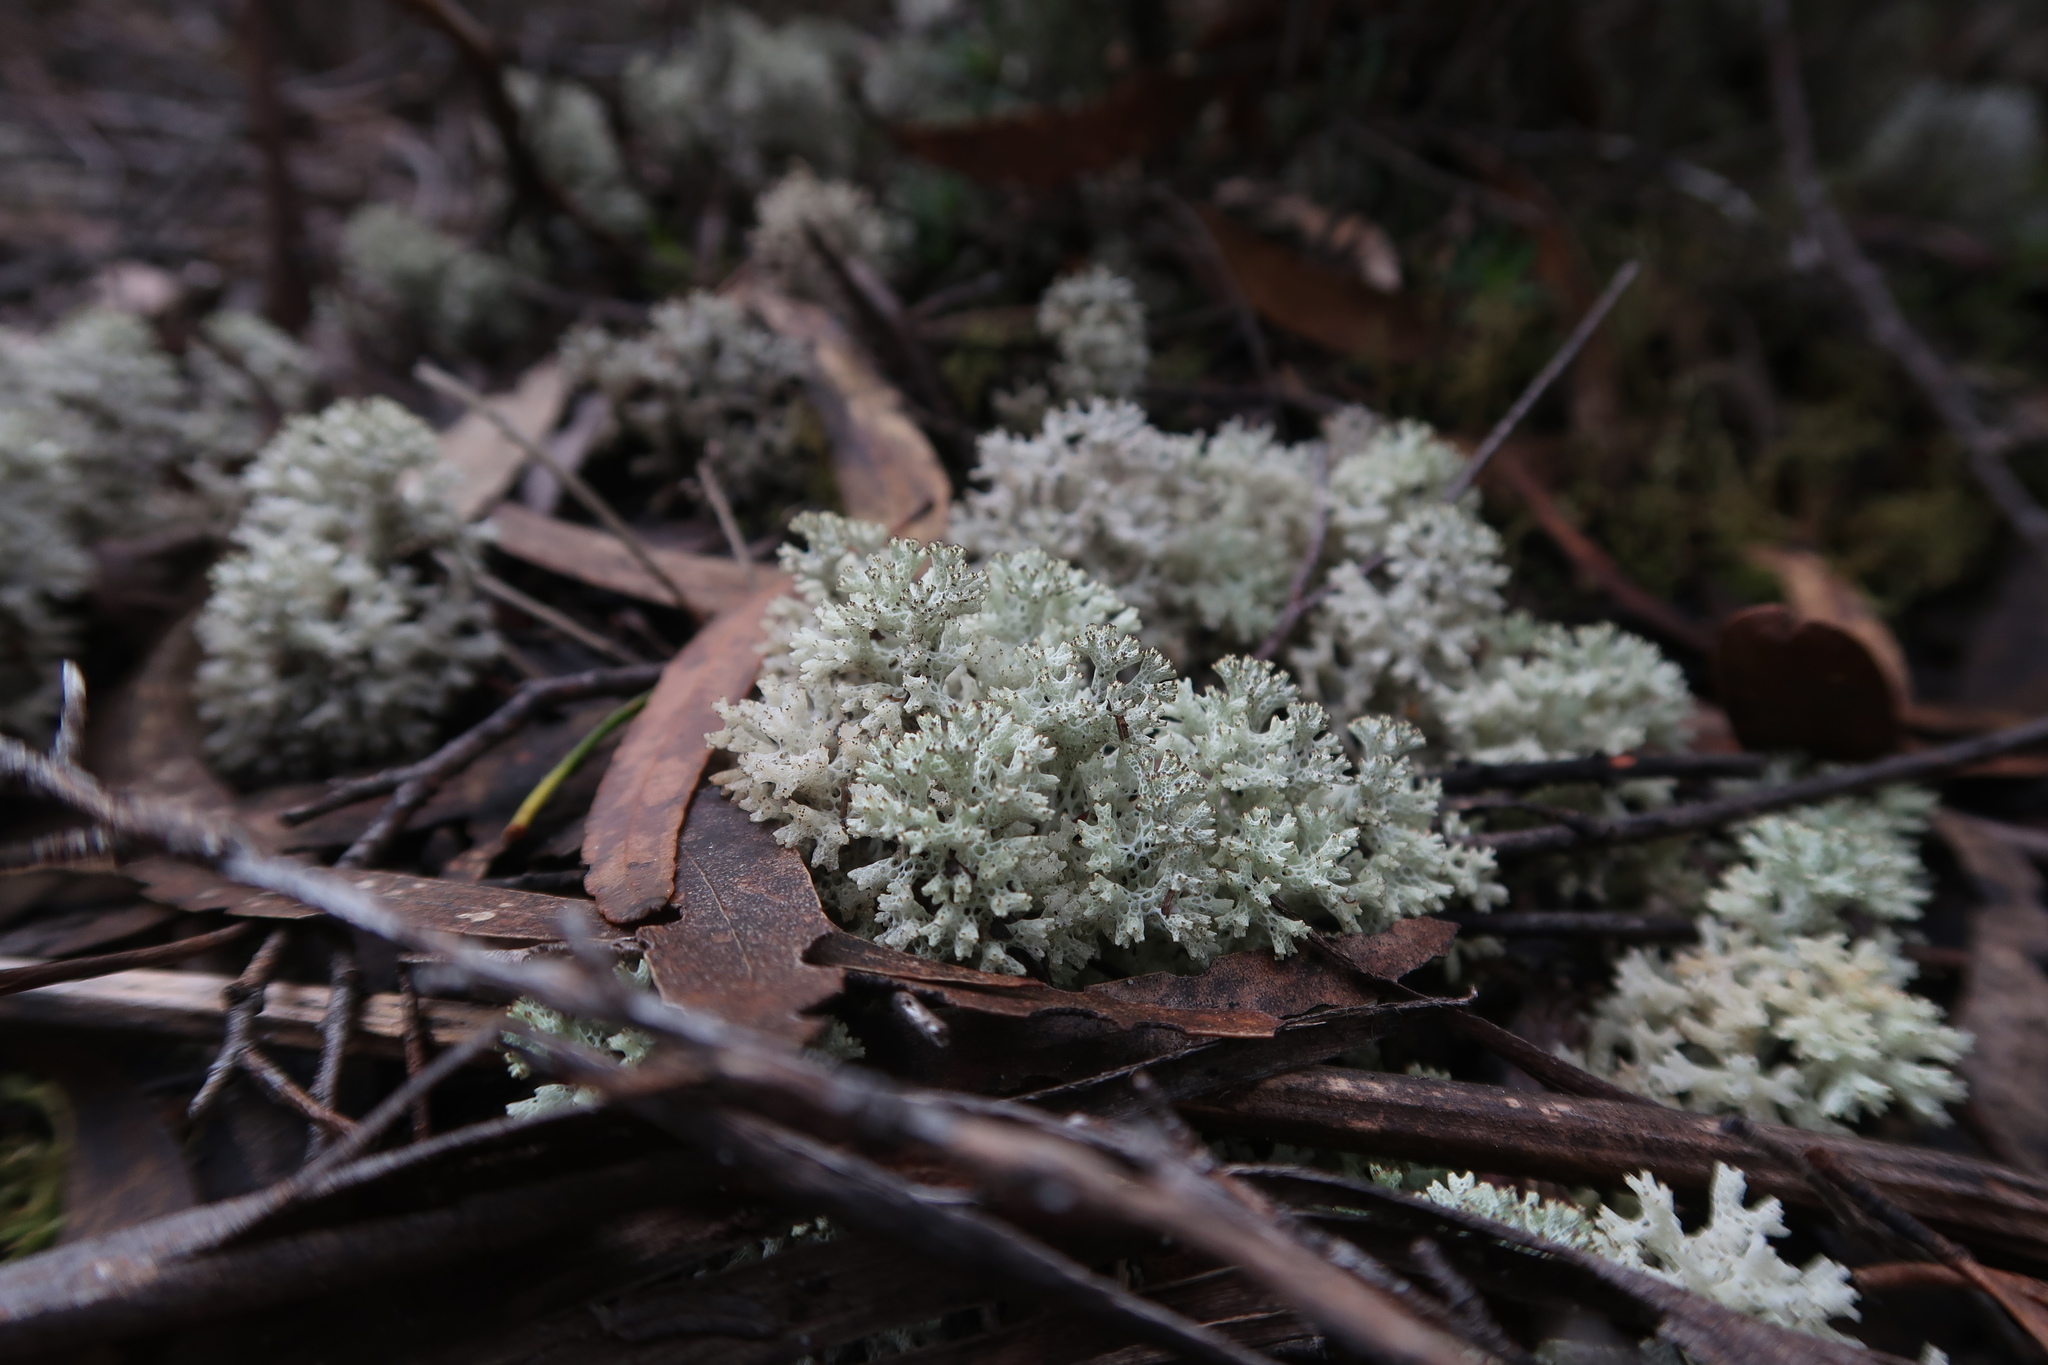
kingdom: Fungi
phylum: Ascomycota
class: Lecanoromycetes
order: Lecanorales
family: Cladoniaceae
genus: Pulchrocladia
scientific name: Pulchrocladia retipora
